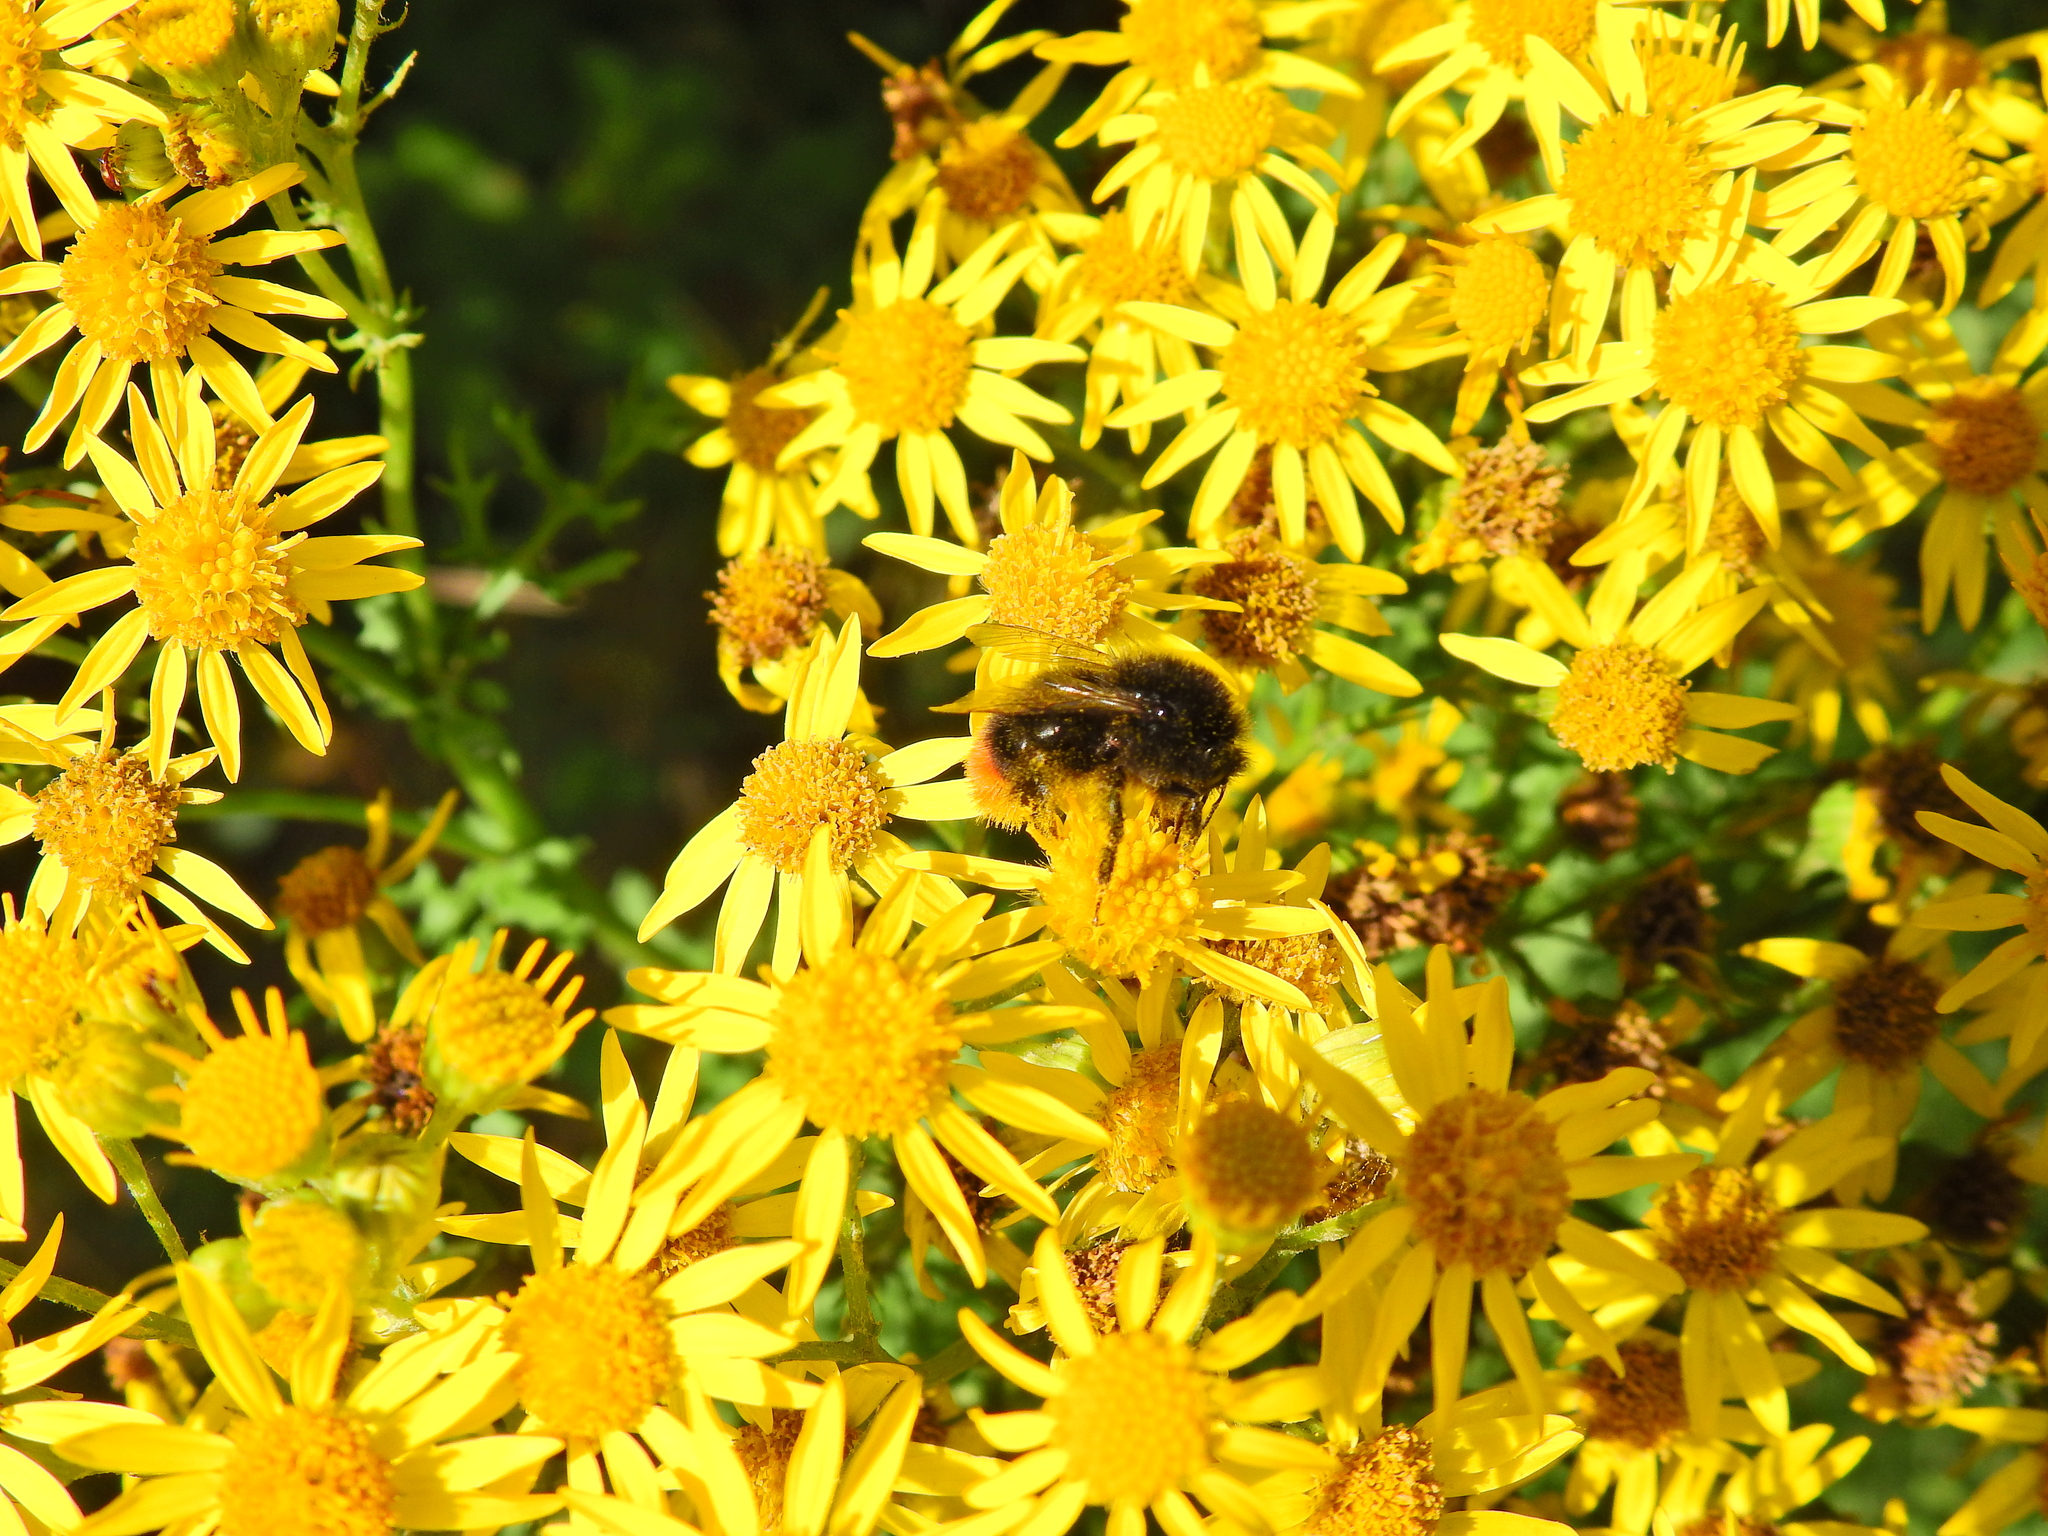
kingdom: Animalia
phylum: Arthropoda
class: Insecta
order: Hymenoptera
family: Apidae
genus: Bombus
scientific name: Bombus lapidarius
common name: Large red-tailed humble-bee
